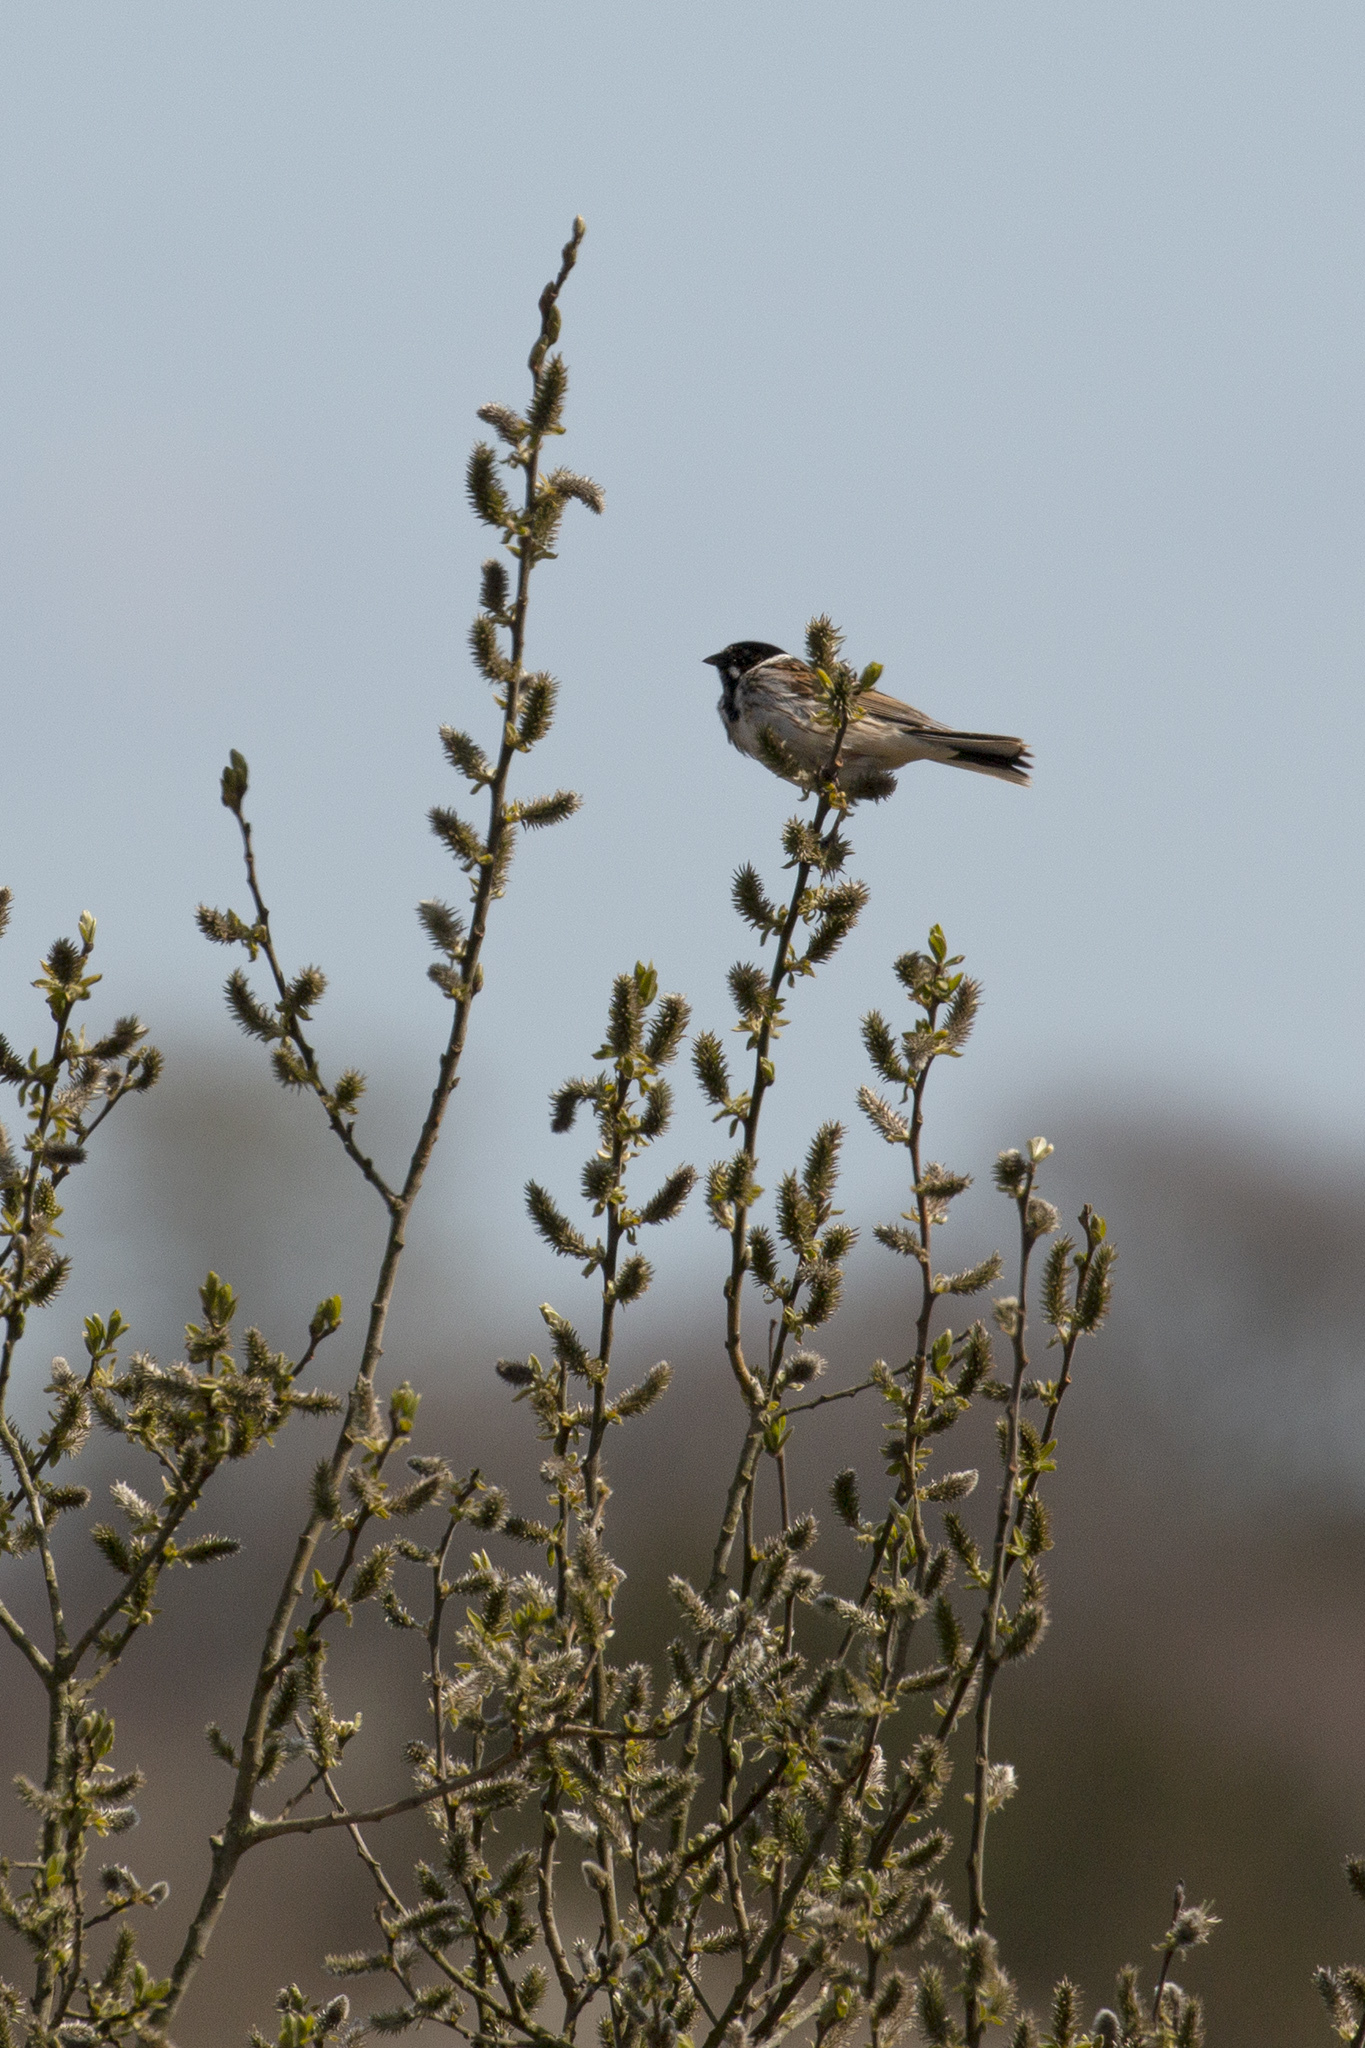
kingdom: Animalia
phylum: Chordata
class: Aves
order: Passeriformes
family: Emberizidae
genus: Emberiza
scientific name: Emberiza schoeniclus
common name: Reed bunting
